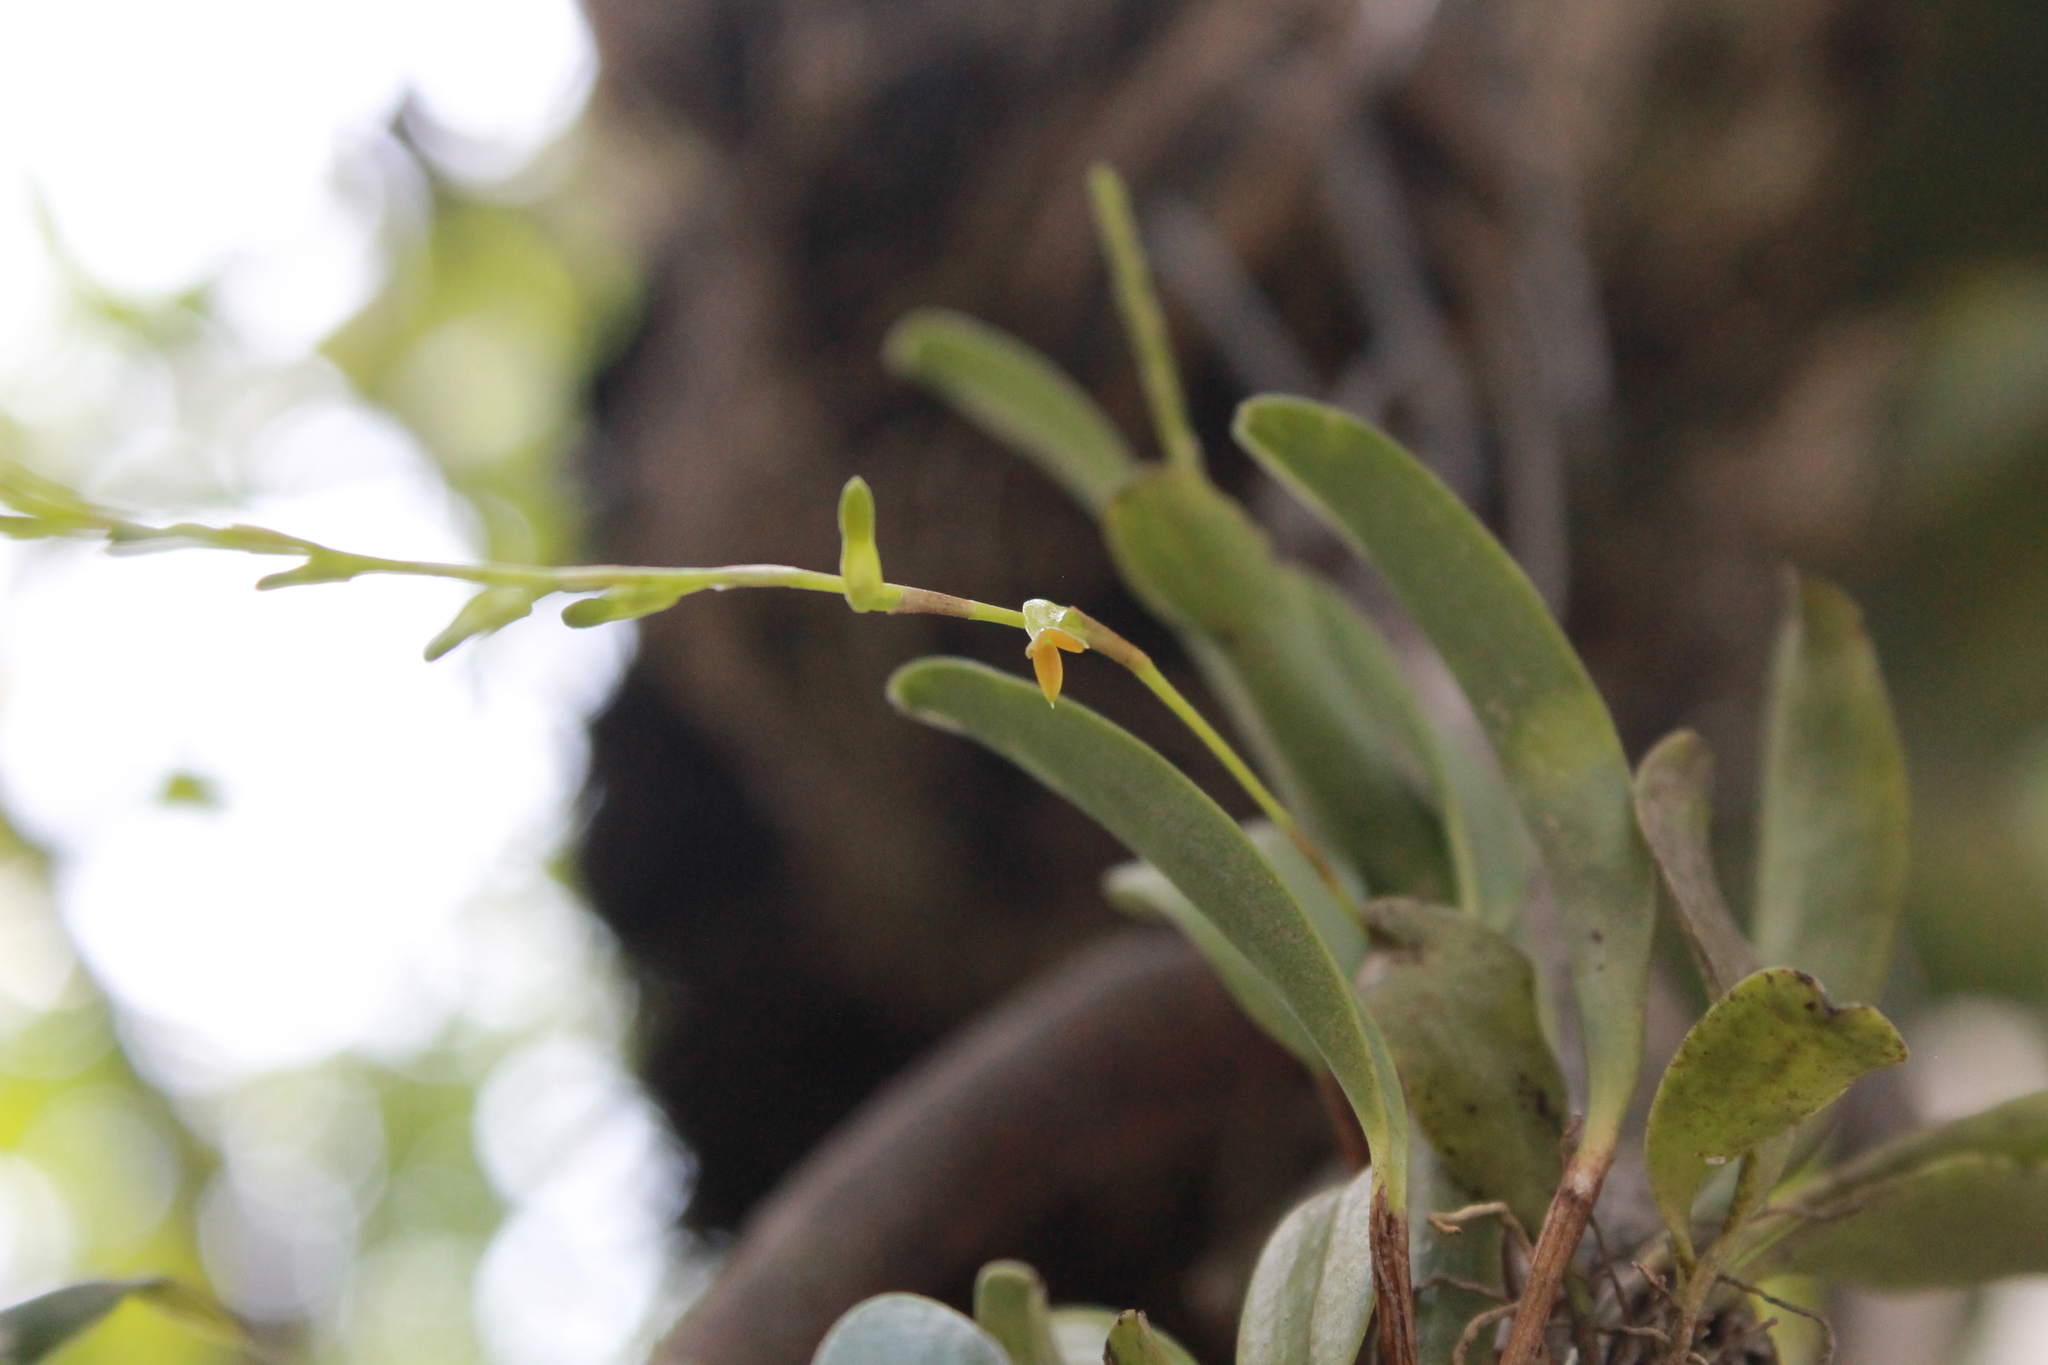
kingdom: Plantae
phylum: Tracheophyta
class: Liliopsida
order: Asparagales
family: Orchidaceae
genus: Stelis
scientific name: Stelis emarginata
